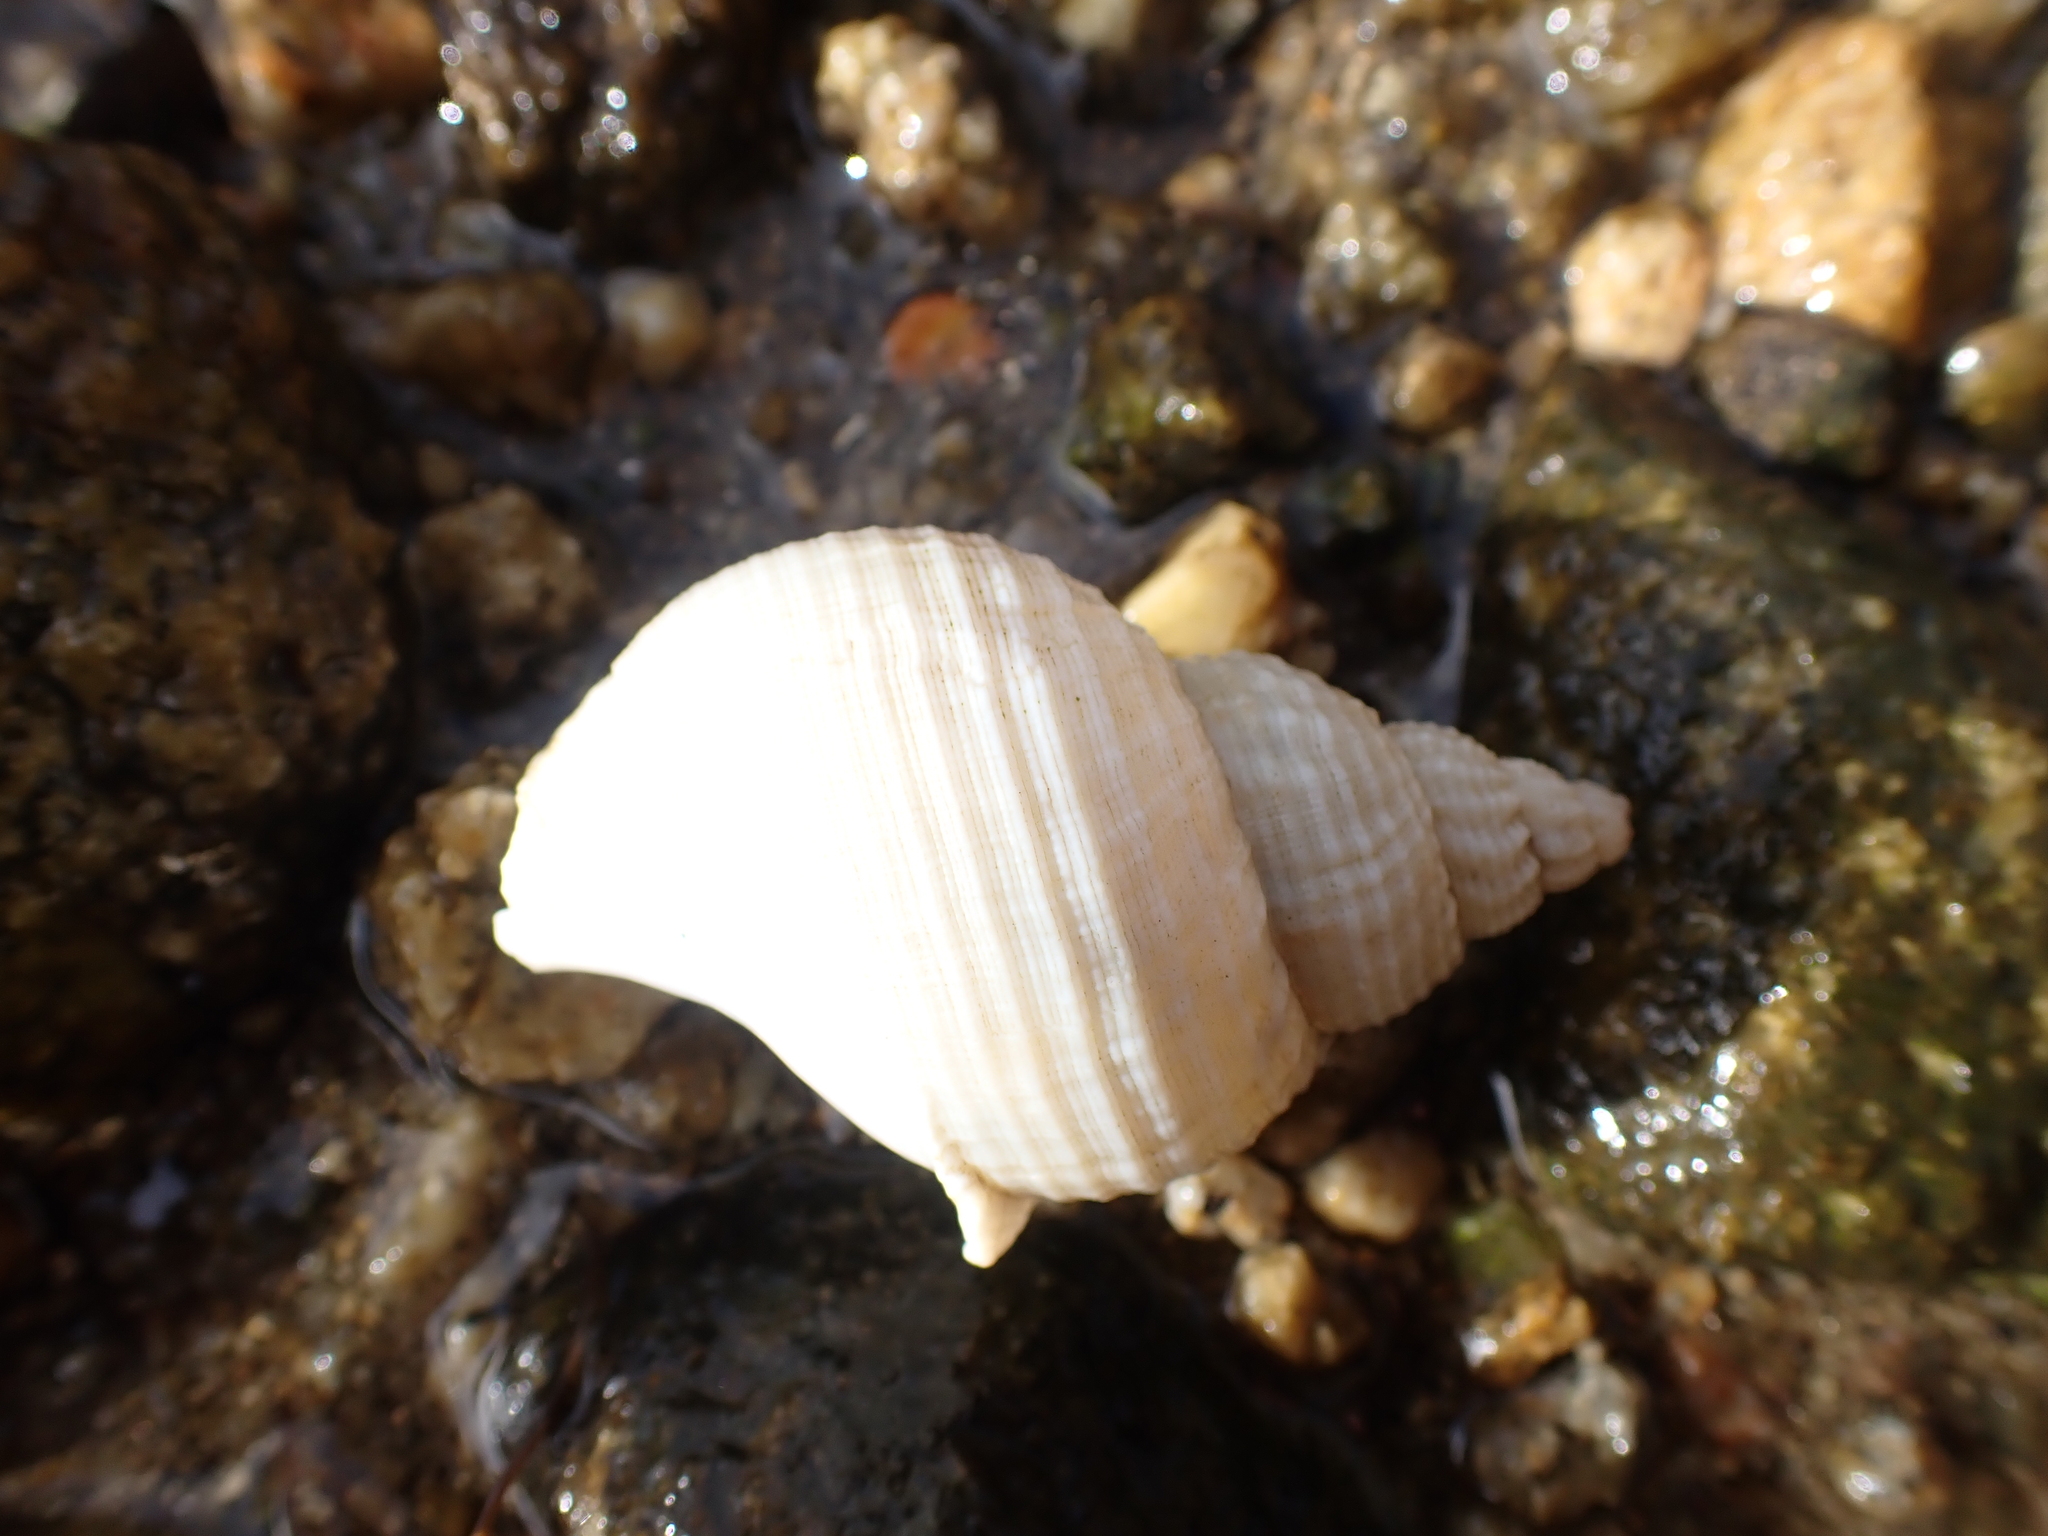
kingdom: Animalia
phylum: Mollusca
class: Gastropoda
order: Neogastropoda
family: Buccinidae
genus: Buccinum
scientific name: Buccinum undatum
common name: Common whelk
